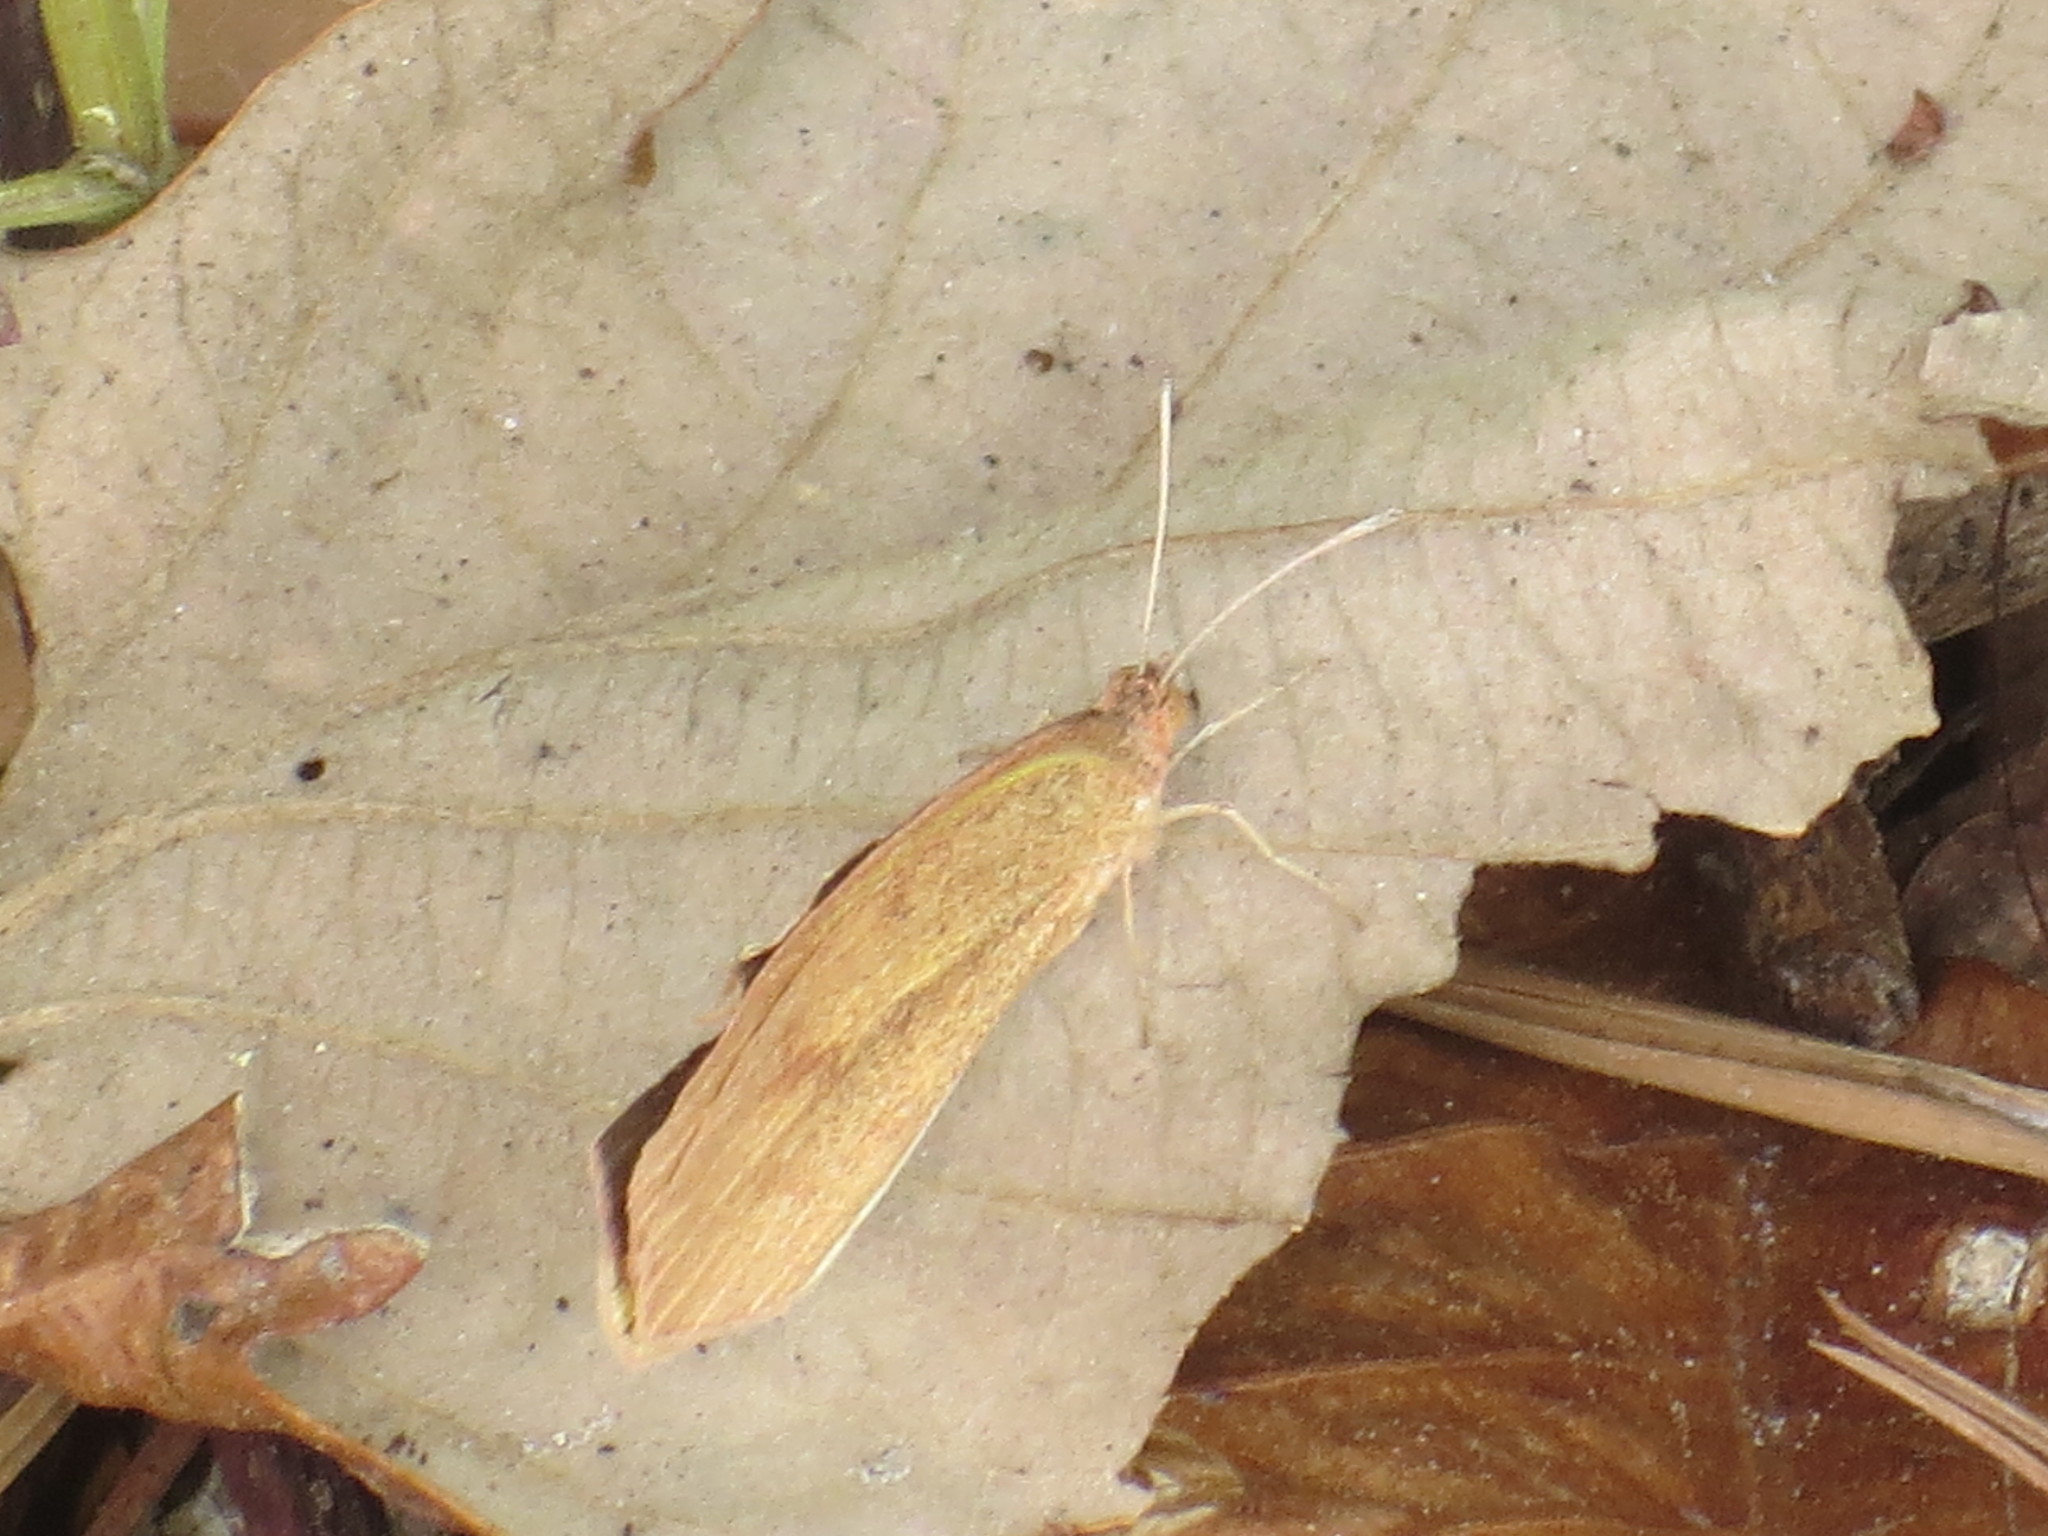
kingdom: Animalia
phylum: Arthropoda
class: Insecta
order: Lepidoptera
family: Pieridae
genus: Abaeis
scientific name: Abaeis nicippe
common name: Sleepy orange
